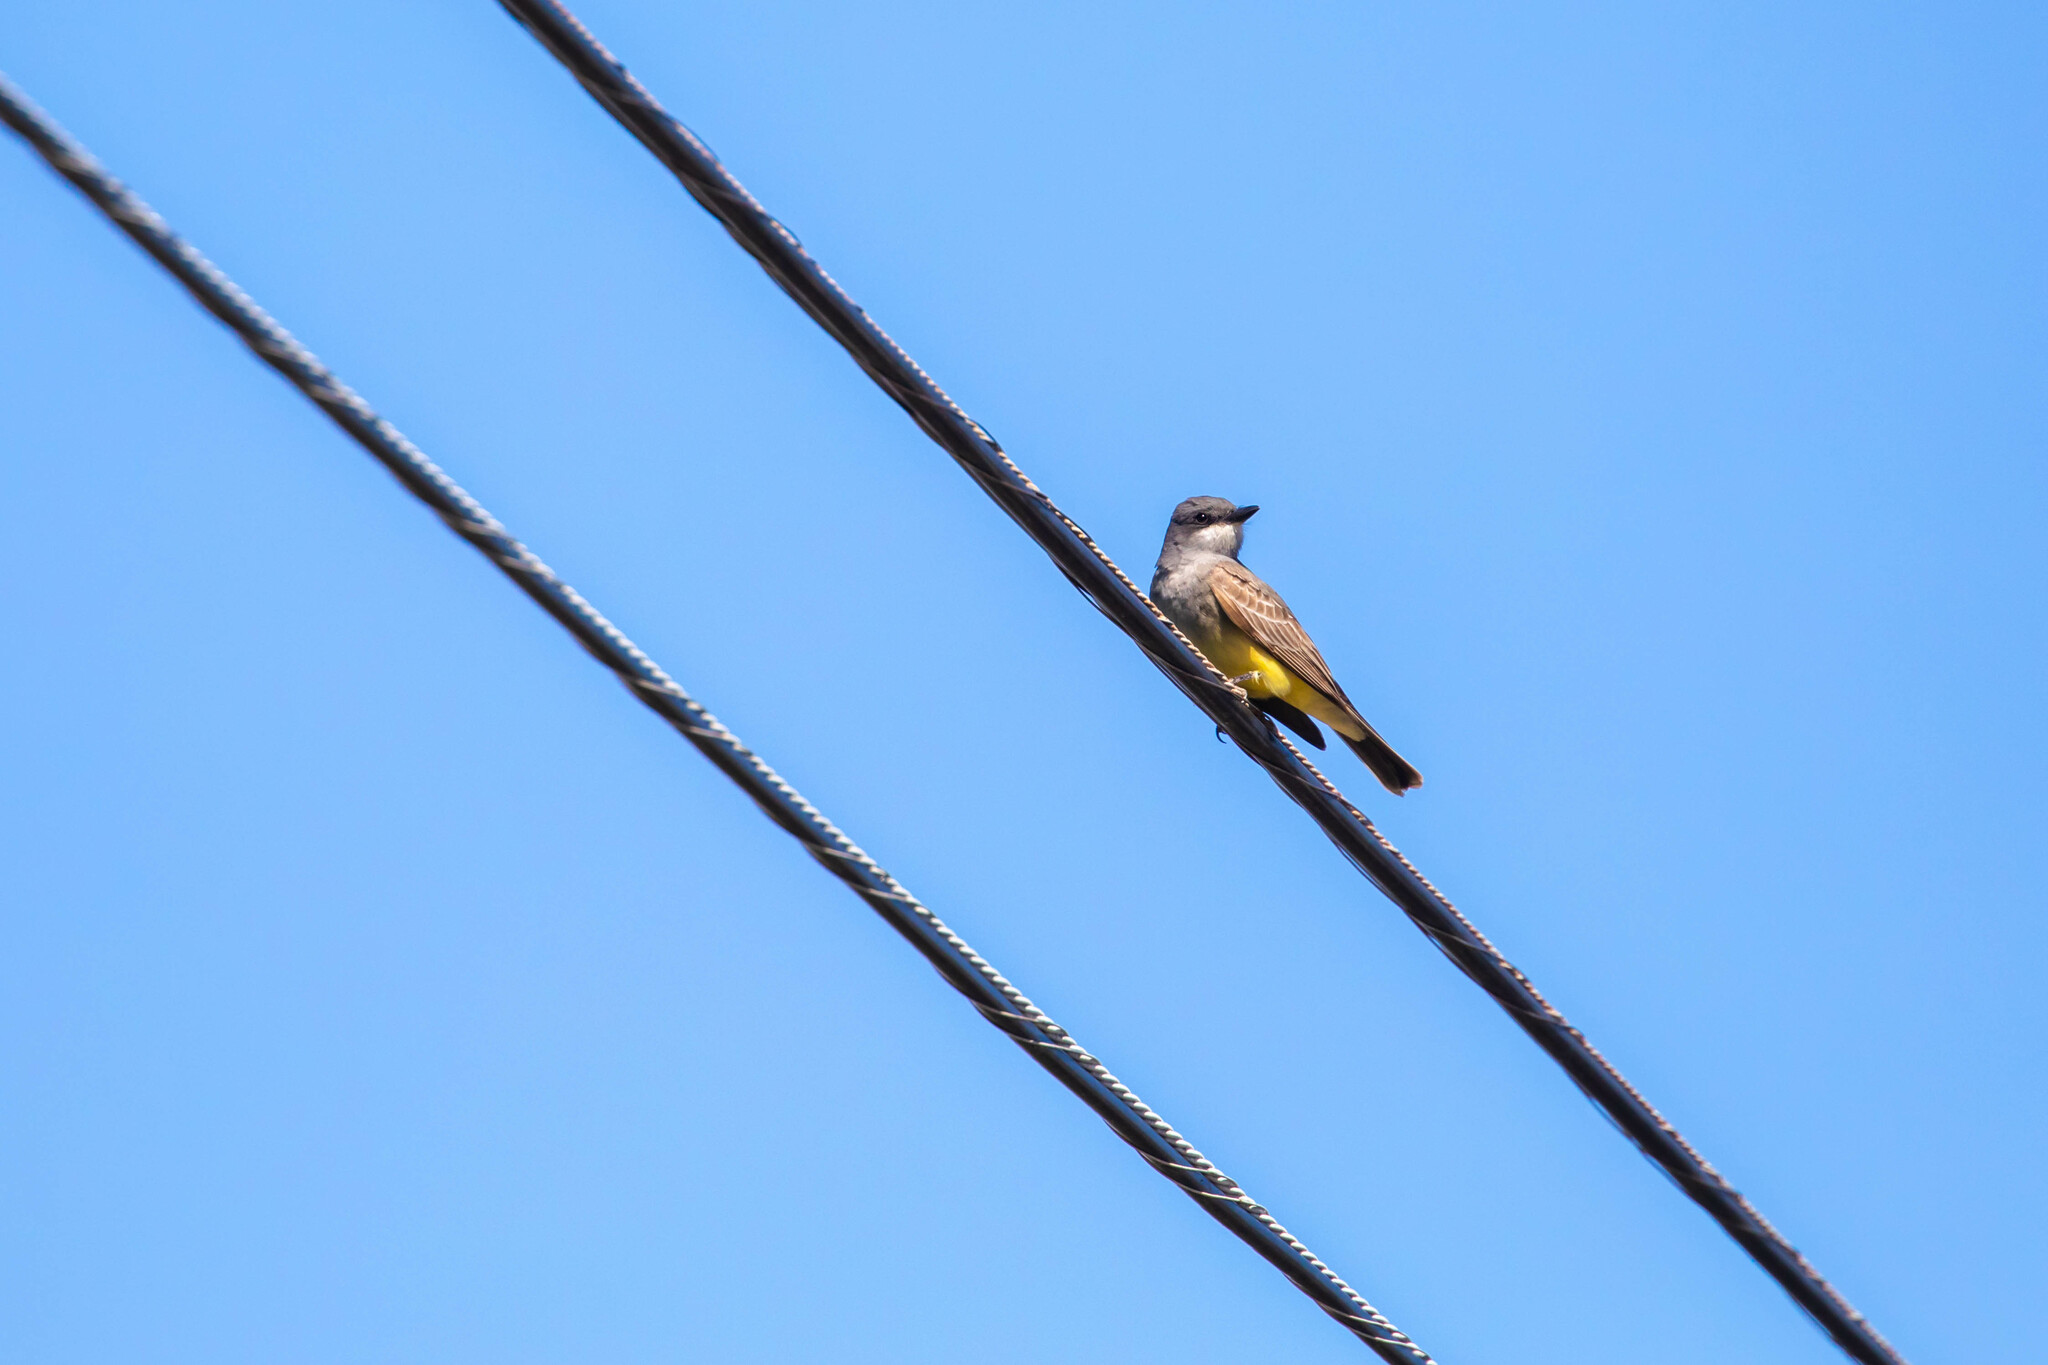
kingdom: Animalia
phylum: Chordata
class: Aves
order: Passeriformes
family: Tyrannidae
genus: Tyrannus
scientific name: Tyrannus vociferans
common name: Cassin's kingbird
